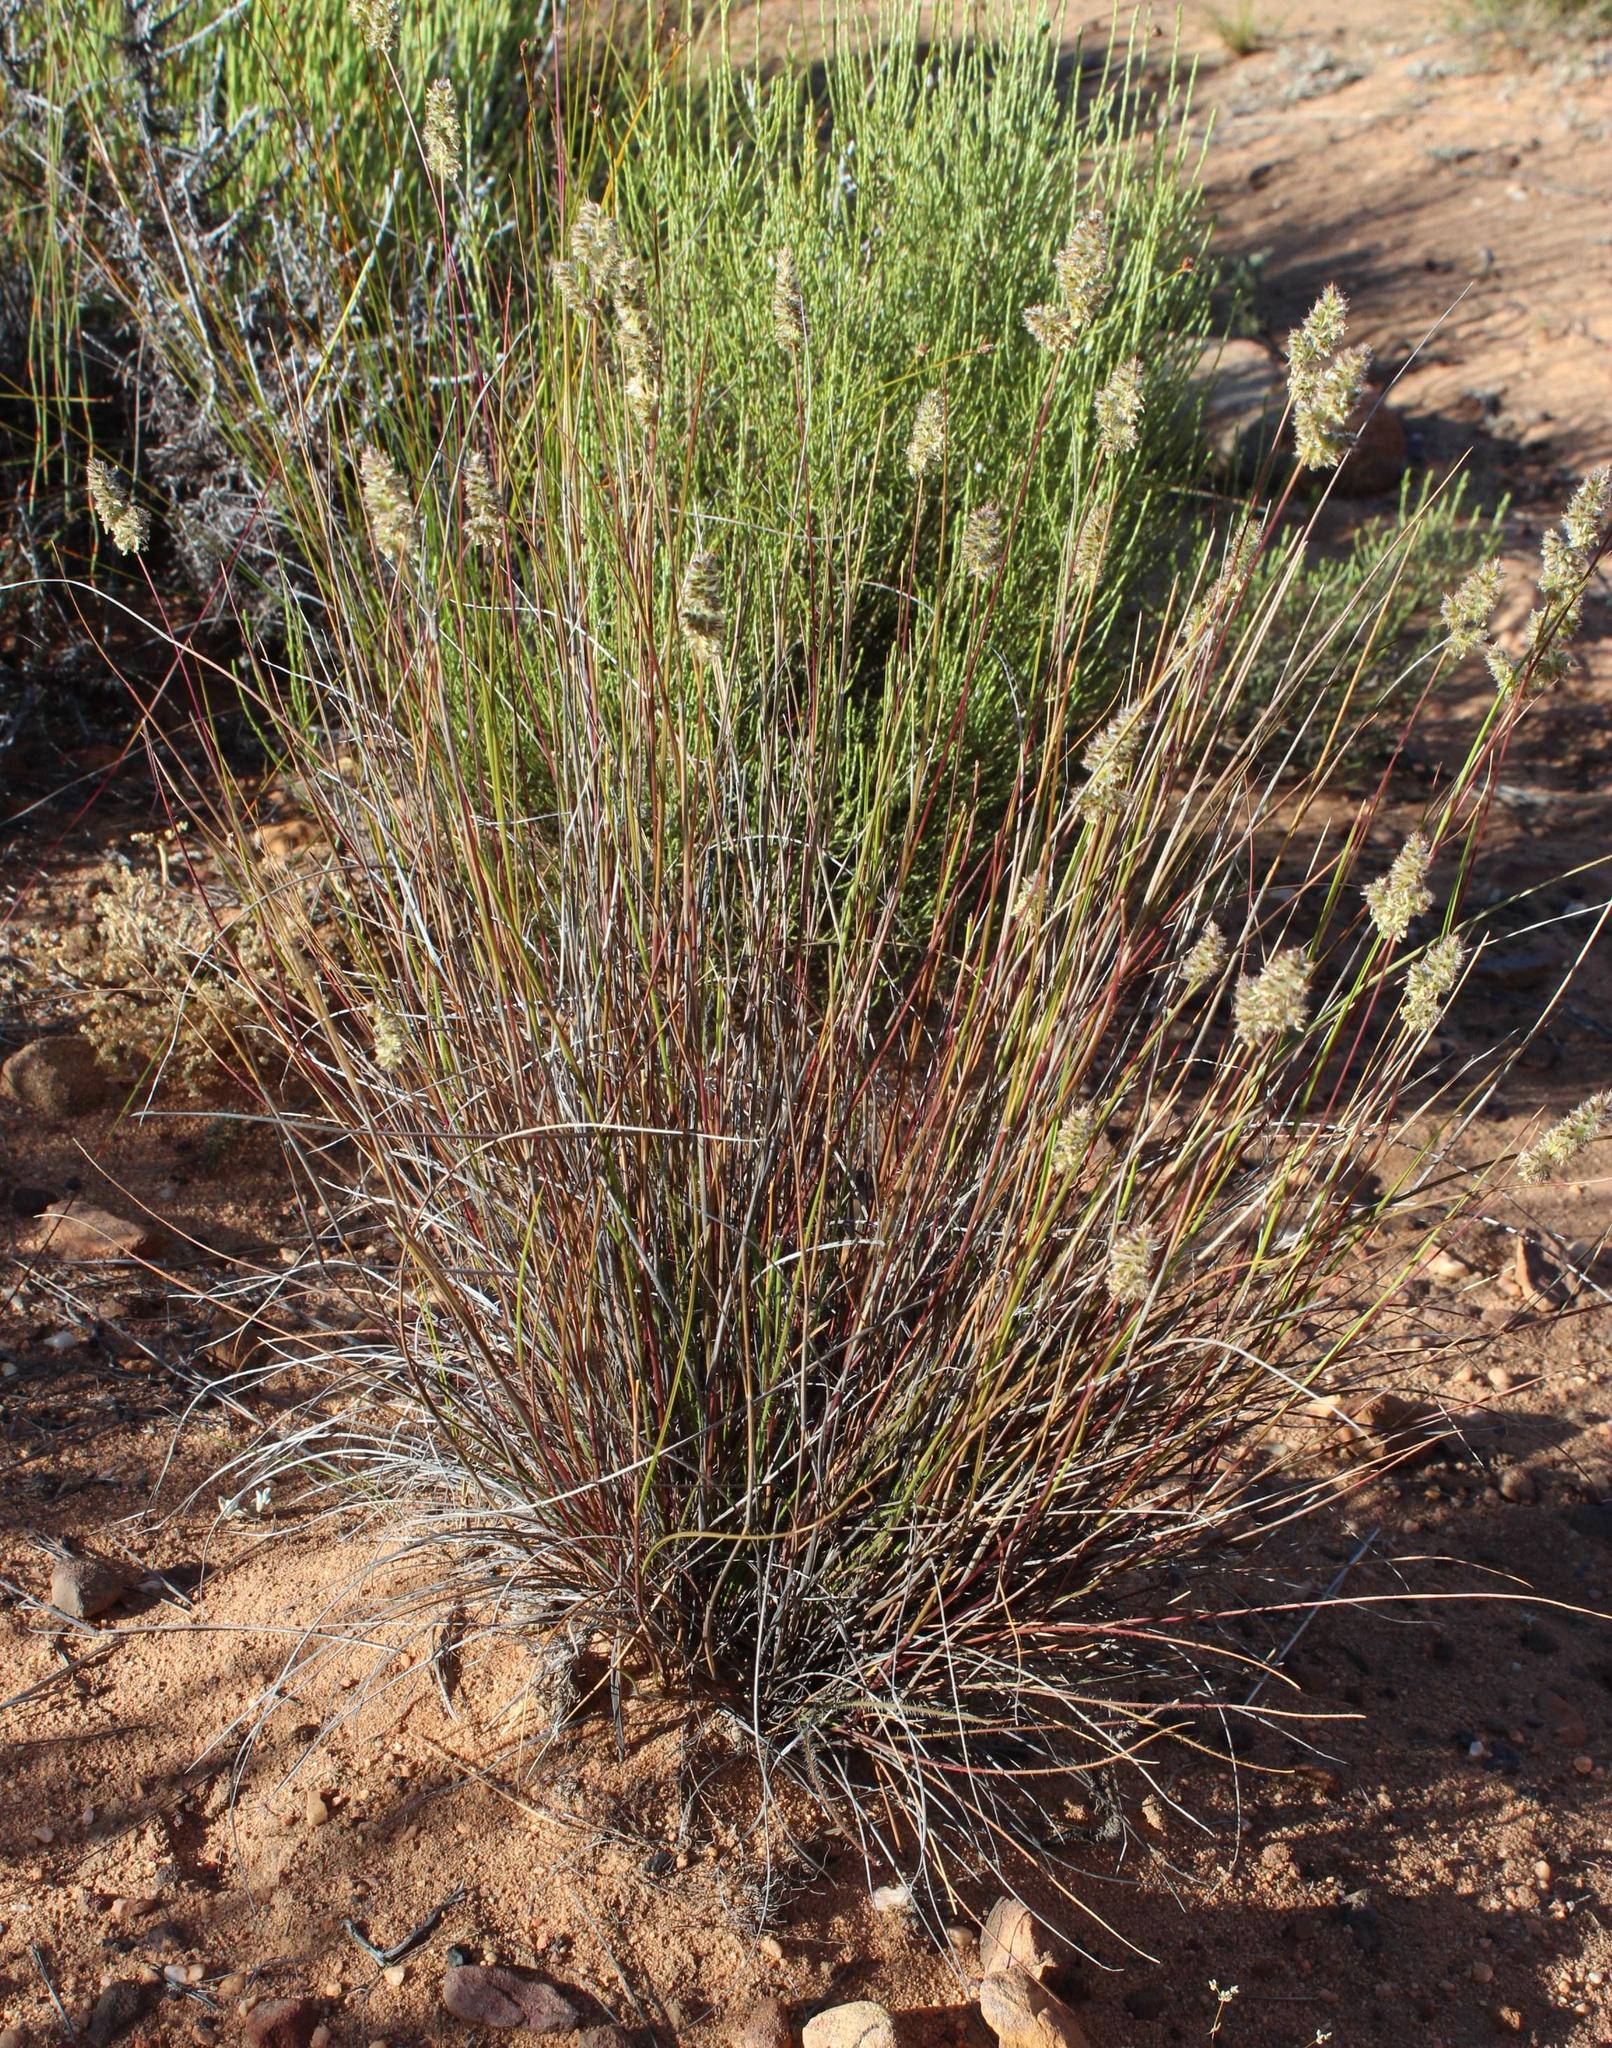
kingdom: Plantae
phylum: Tracheophyta
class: Liliopsida
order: Poales
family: Poaceae
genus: Tribolium
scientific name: Tribolium hispidum
